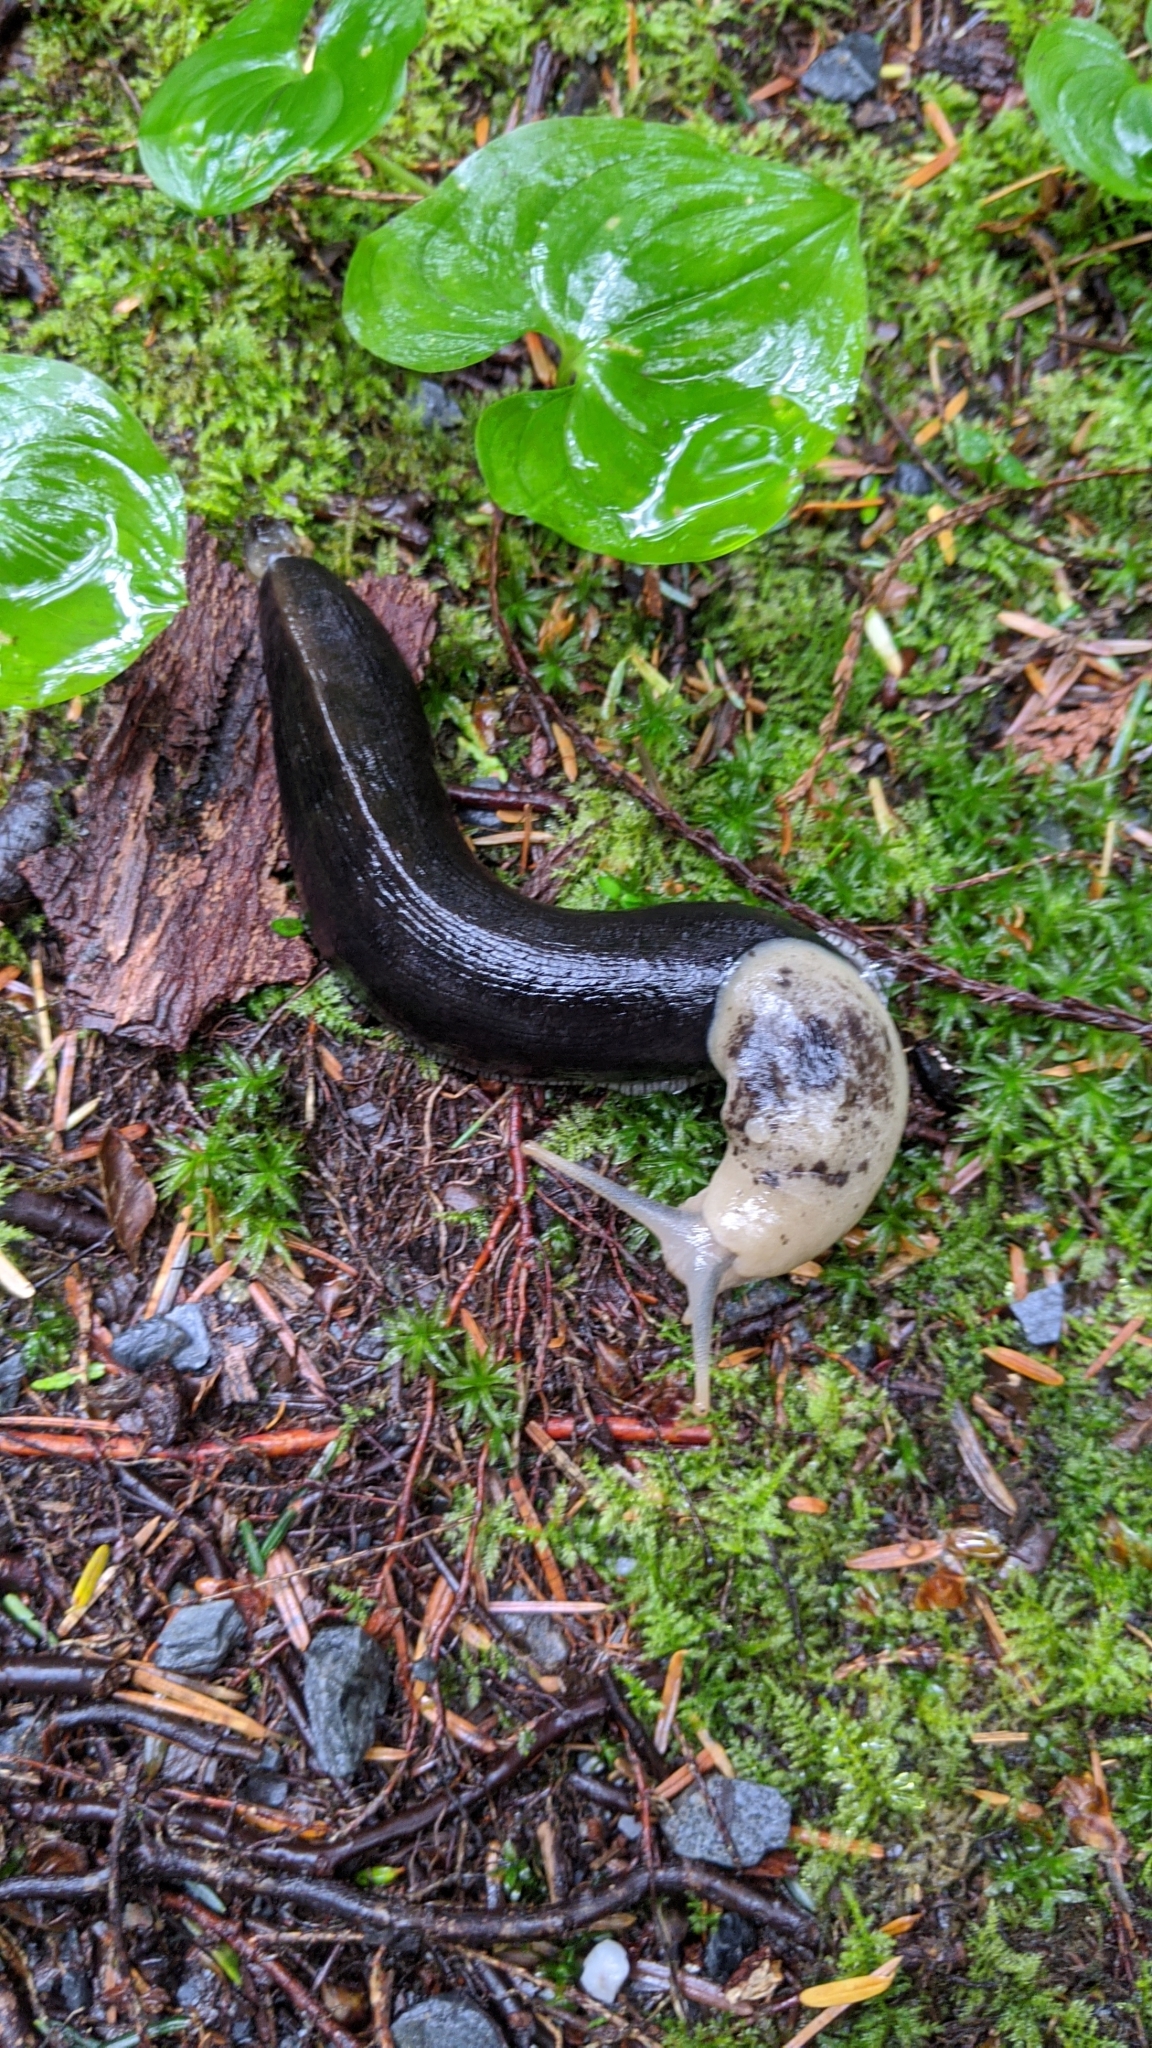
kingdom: Animalia
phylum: Mollusca
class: Gastropoda
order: Stylommatophora
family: Ariolimacidae
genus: Ariolimax
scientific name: Ariolimax columbianus
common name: Pacific banana slug
